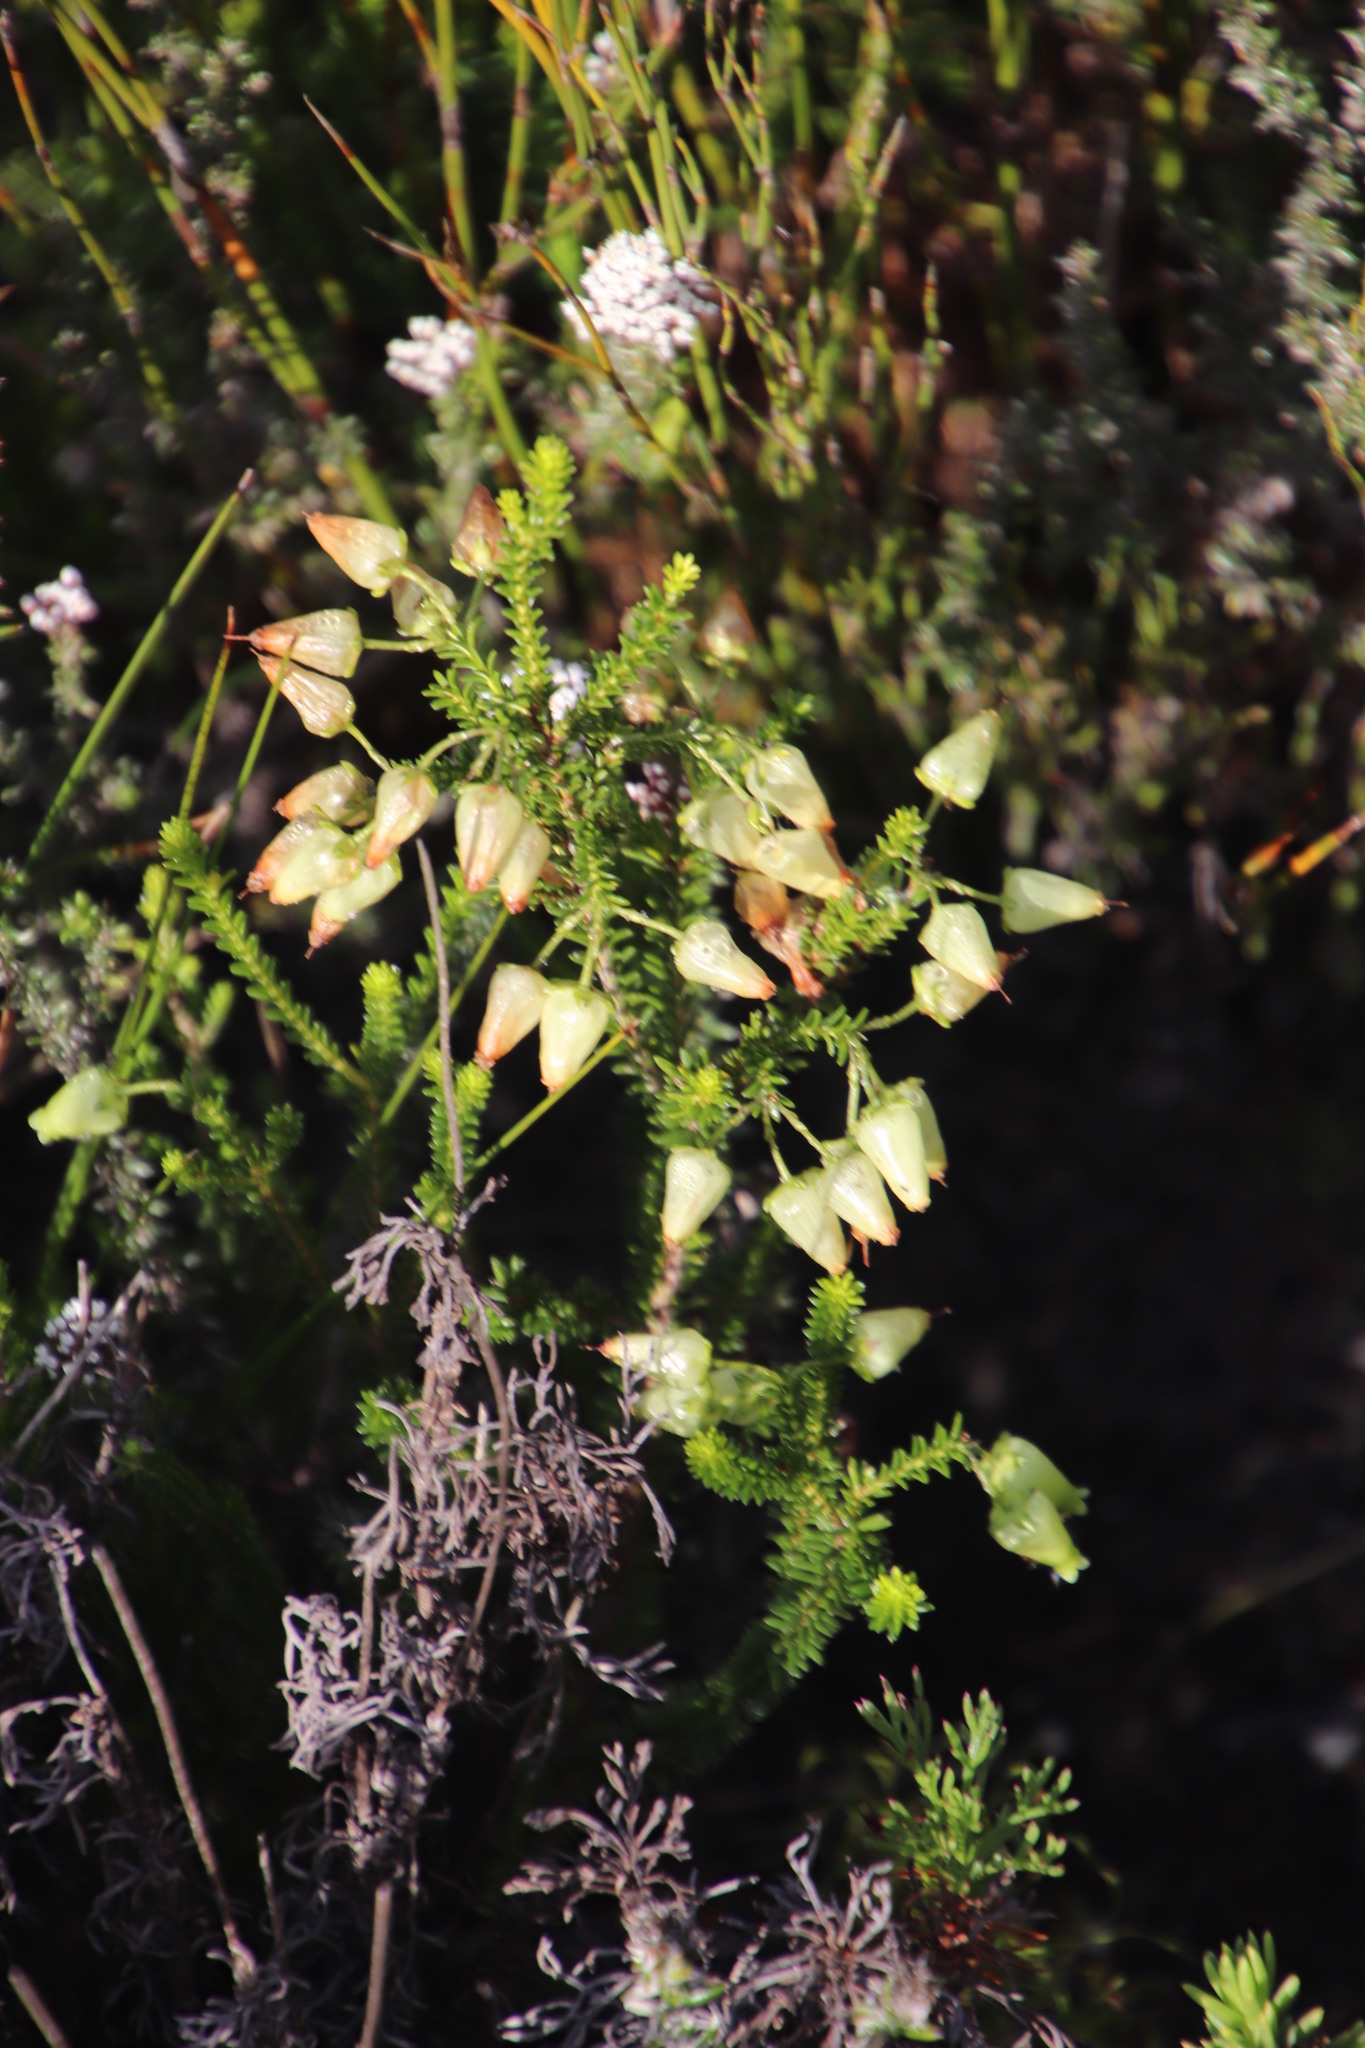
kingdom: Plantae
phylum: Tracheophyta
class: Magnoliopsida
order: Ericales
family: Ericaceae
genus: Erica
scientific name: Erica urna-viridis
